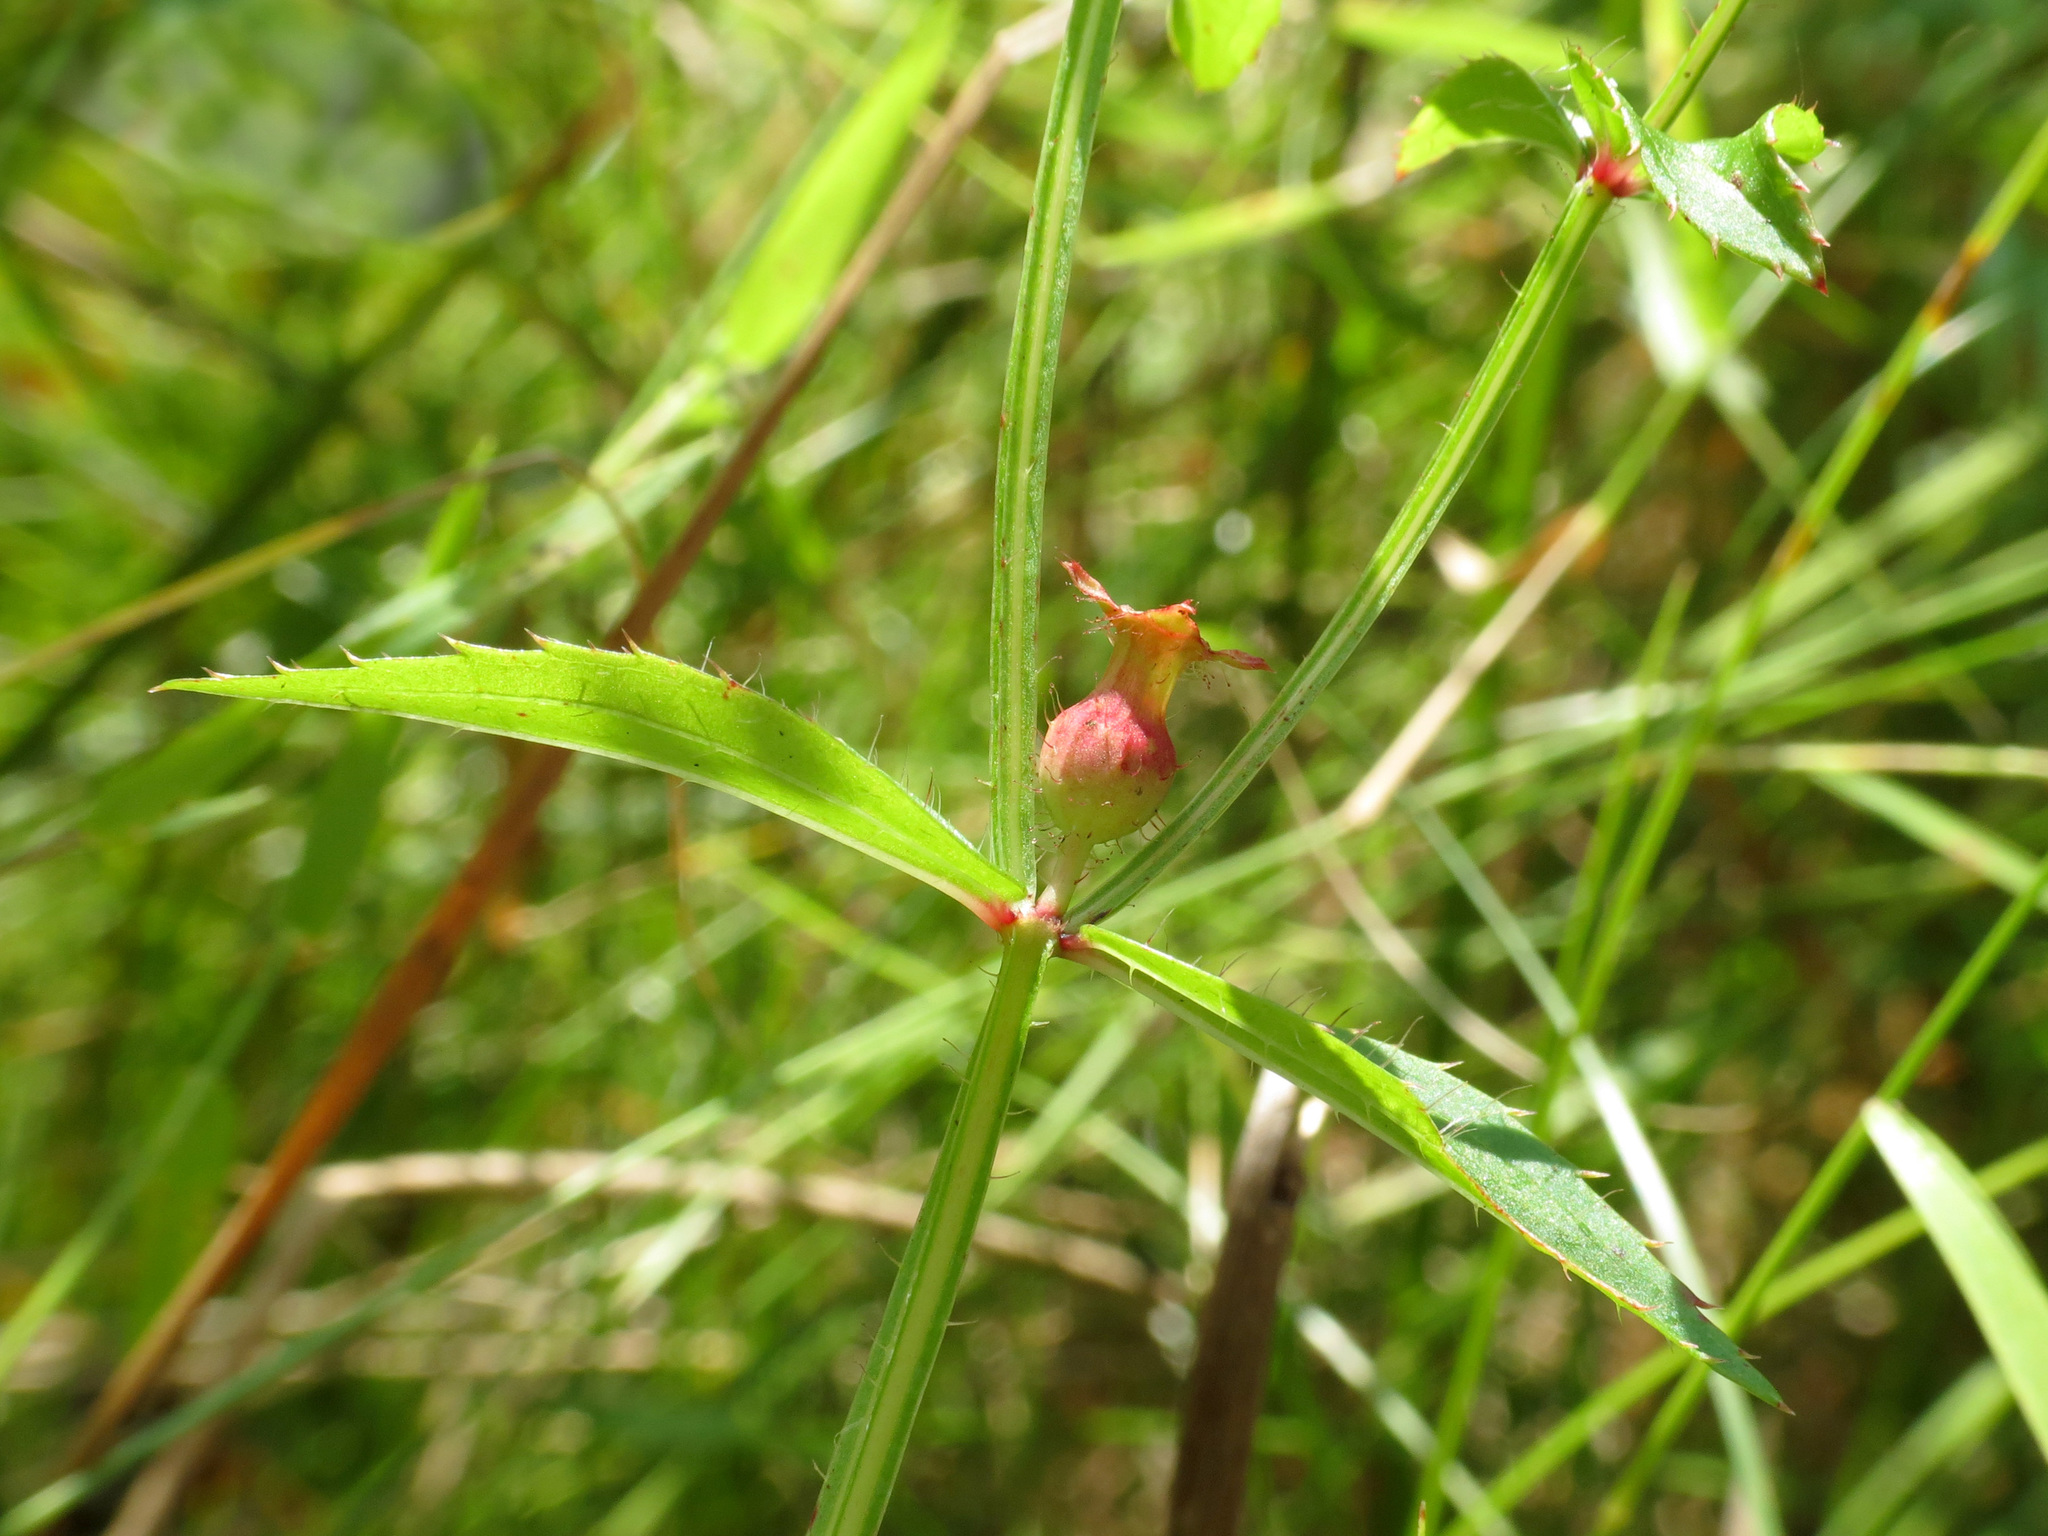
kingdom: Plantae
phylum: Tracheophyta
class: Magnoliopsida
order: Myrtales
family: Melastomataceae
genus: Rhexia
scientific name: Rhexia virginica
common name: Common meadow beauty
